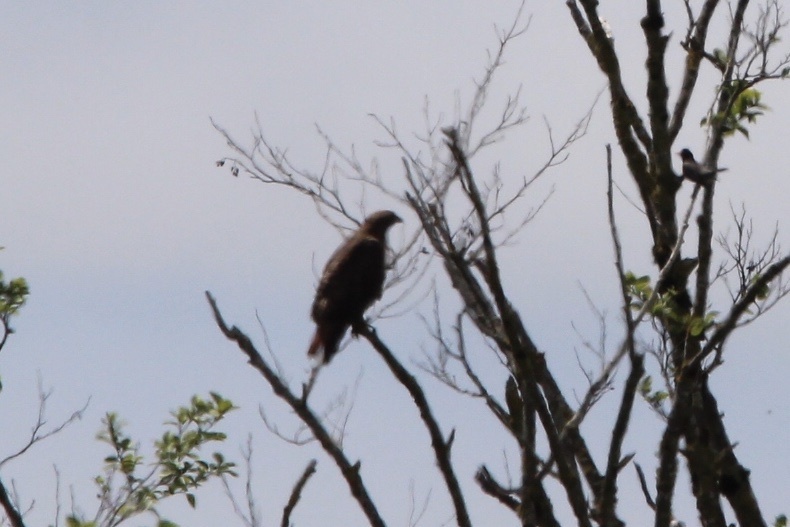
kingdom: Animalia
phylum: Chordata
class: Aves
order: Accipitriformes
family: Accipitridae
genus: Buteo
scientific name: Buteo jamaicensis
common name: Red-tailed hawk
